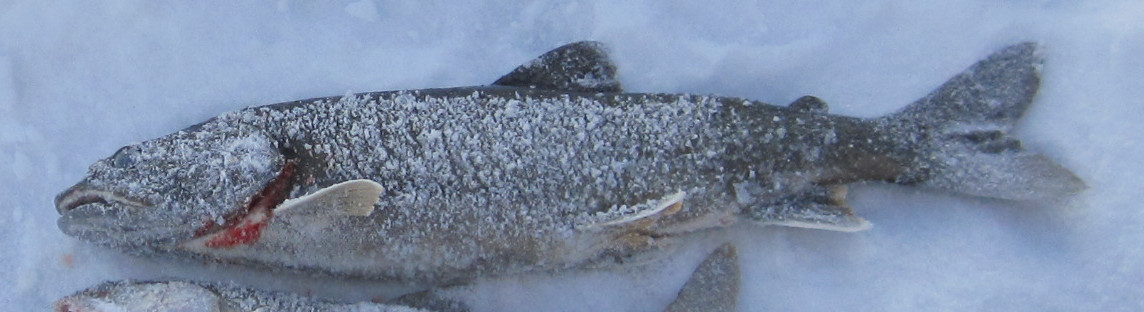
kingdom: Animalia
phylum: Chordata
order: Salmoniformes
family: Salmonidae
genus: Salvelinus
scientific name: Salvelinus namaycush
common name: American lake charr
